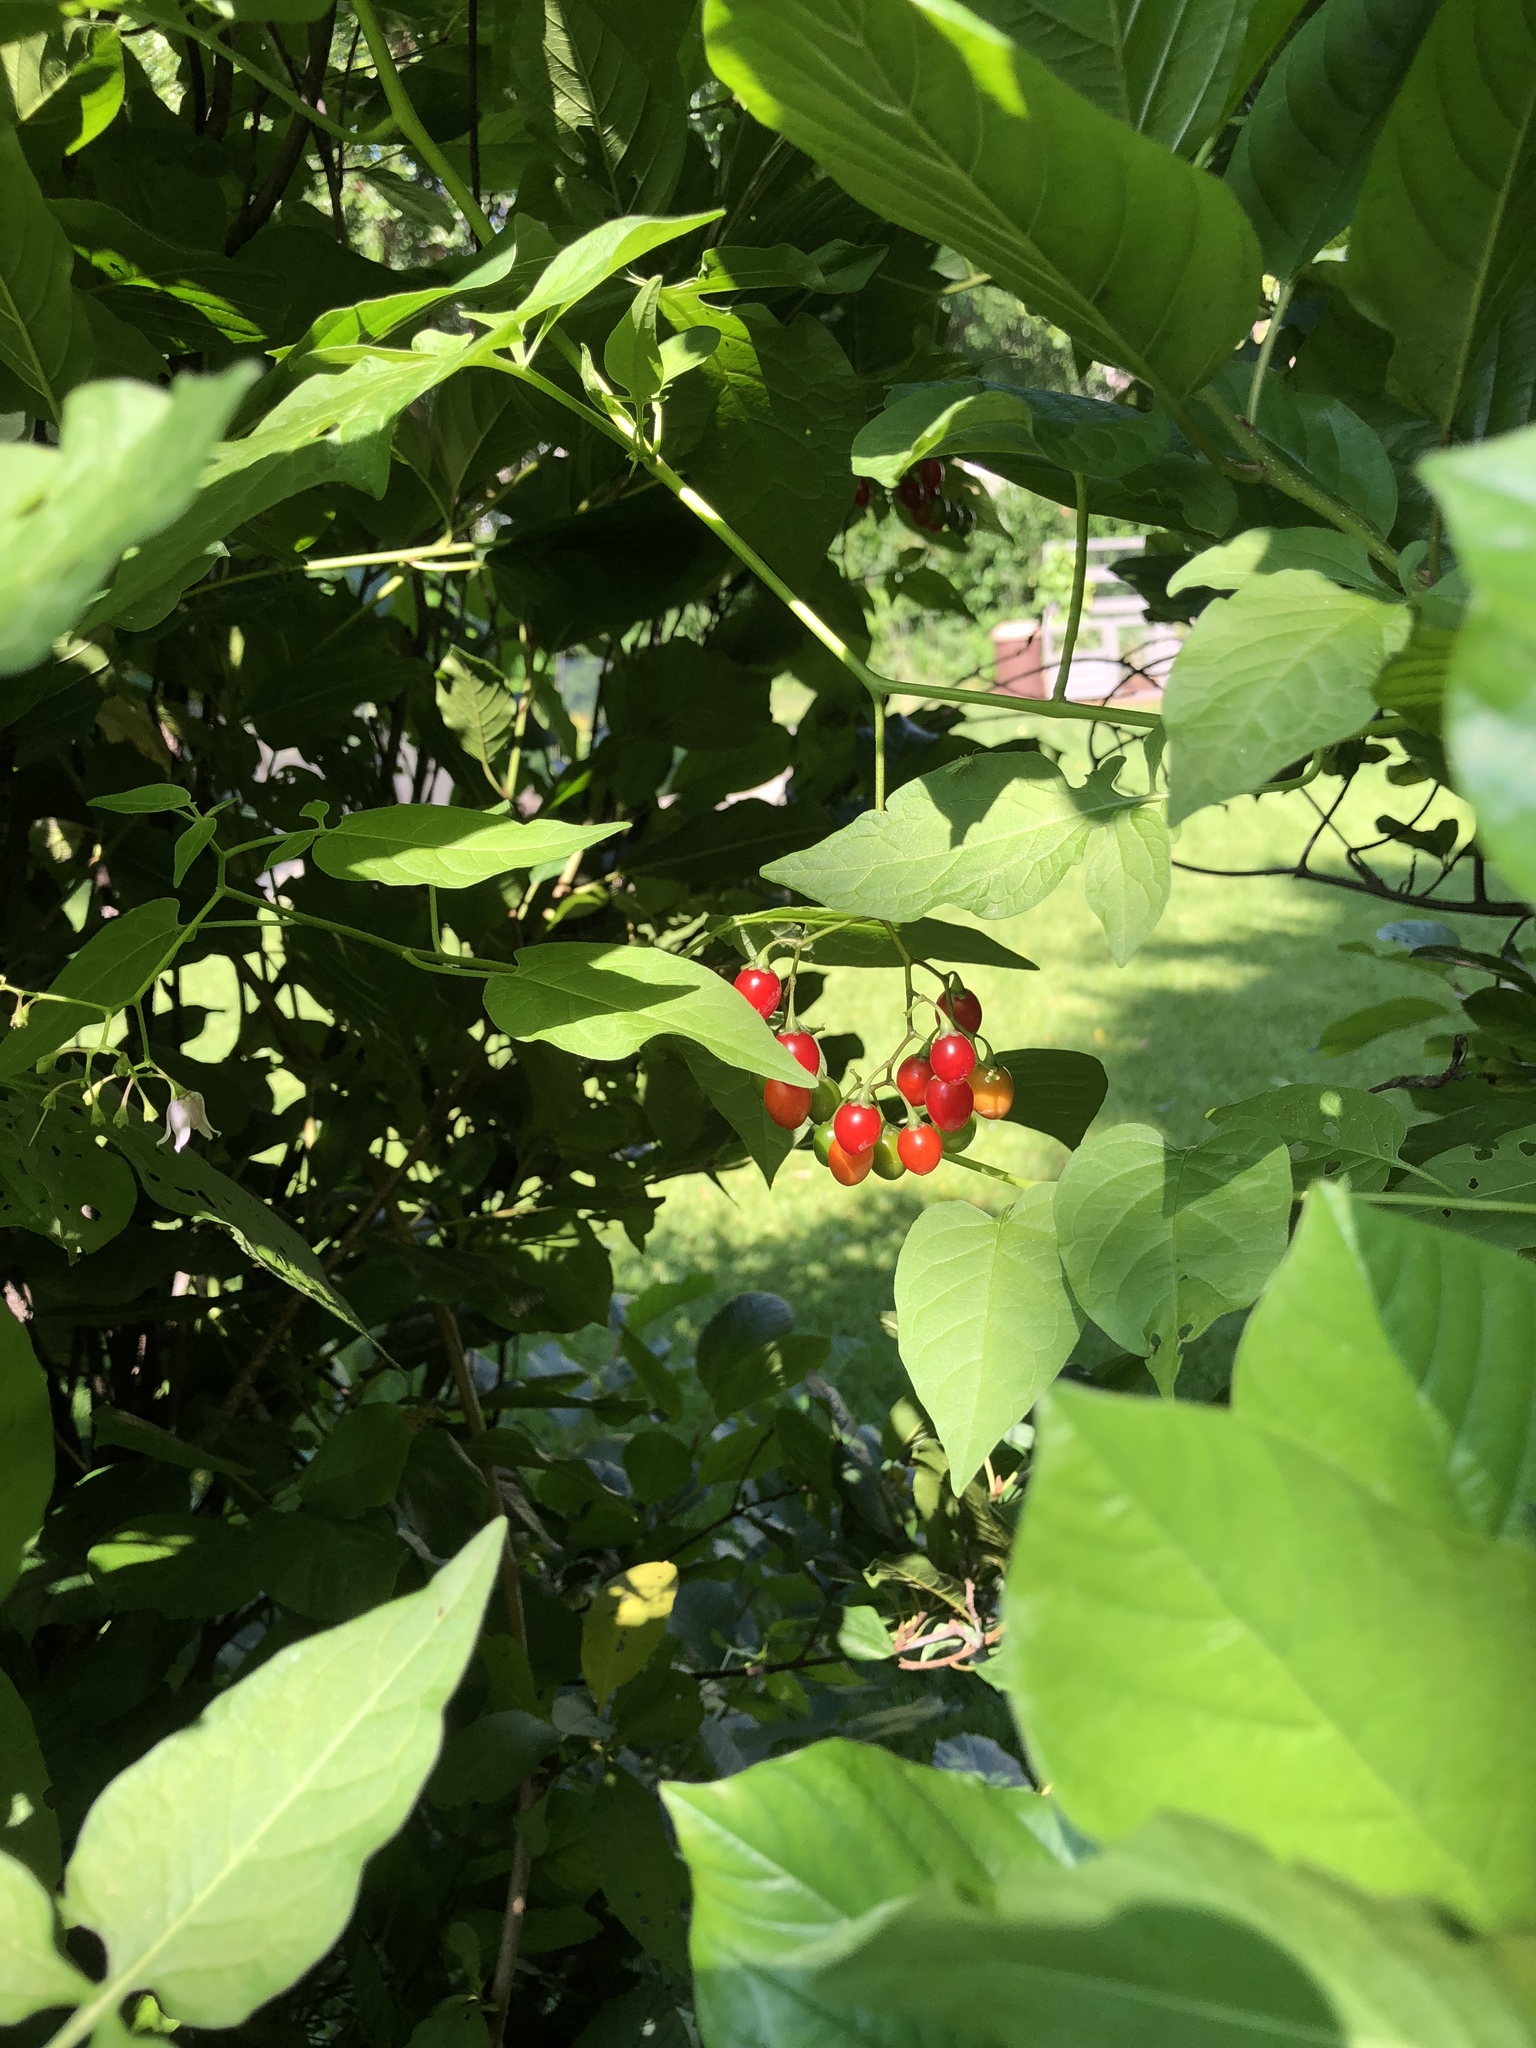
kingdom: Plantae
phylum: Tracheophyta
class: Magnoliopsida
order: Solanales
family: Solanaceae
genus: Solanum
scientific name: Solanum dulcamara
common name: Climbing nightshade
